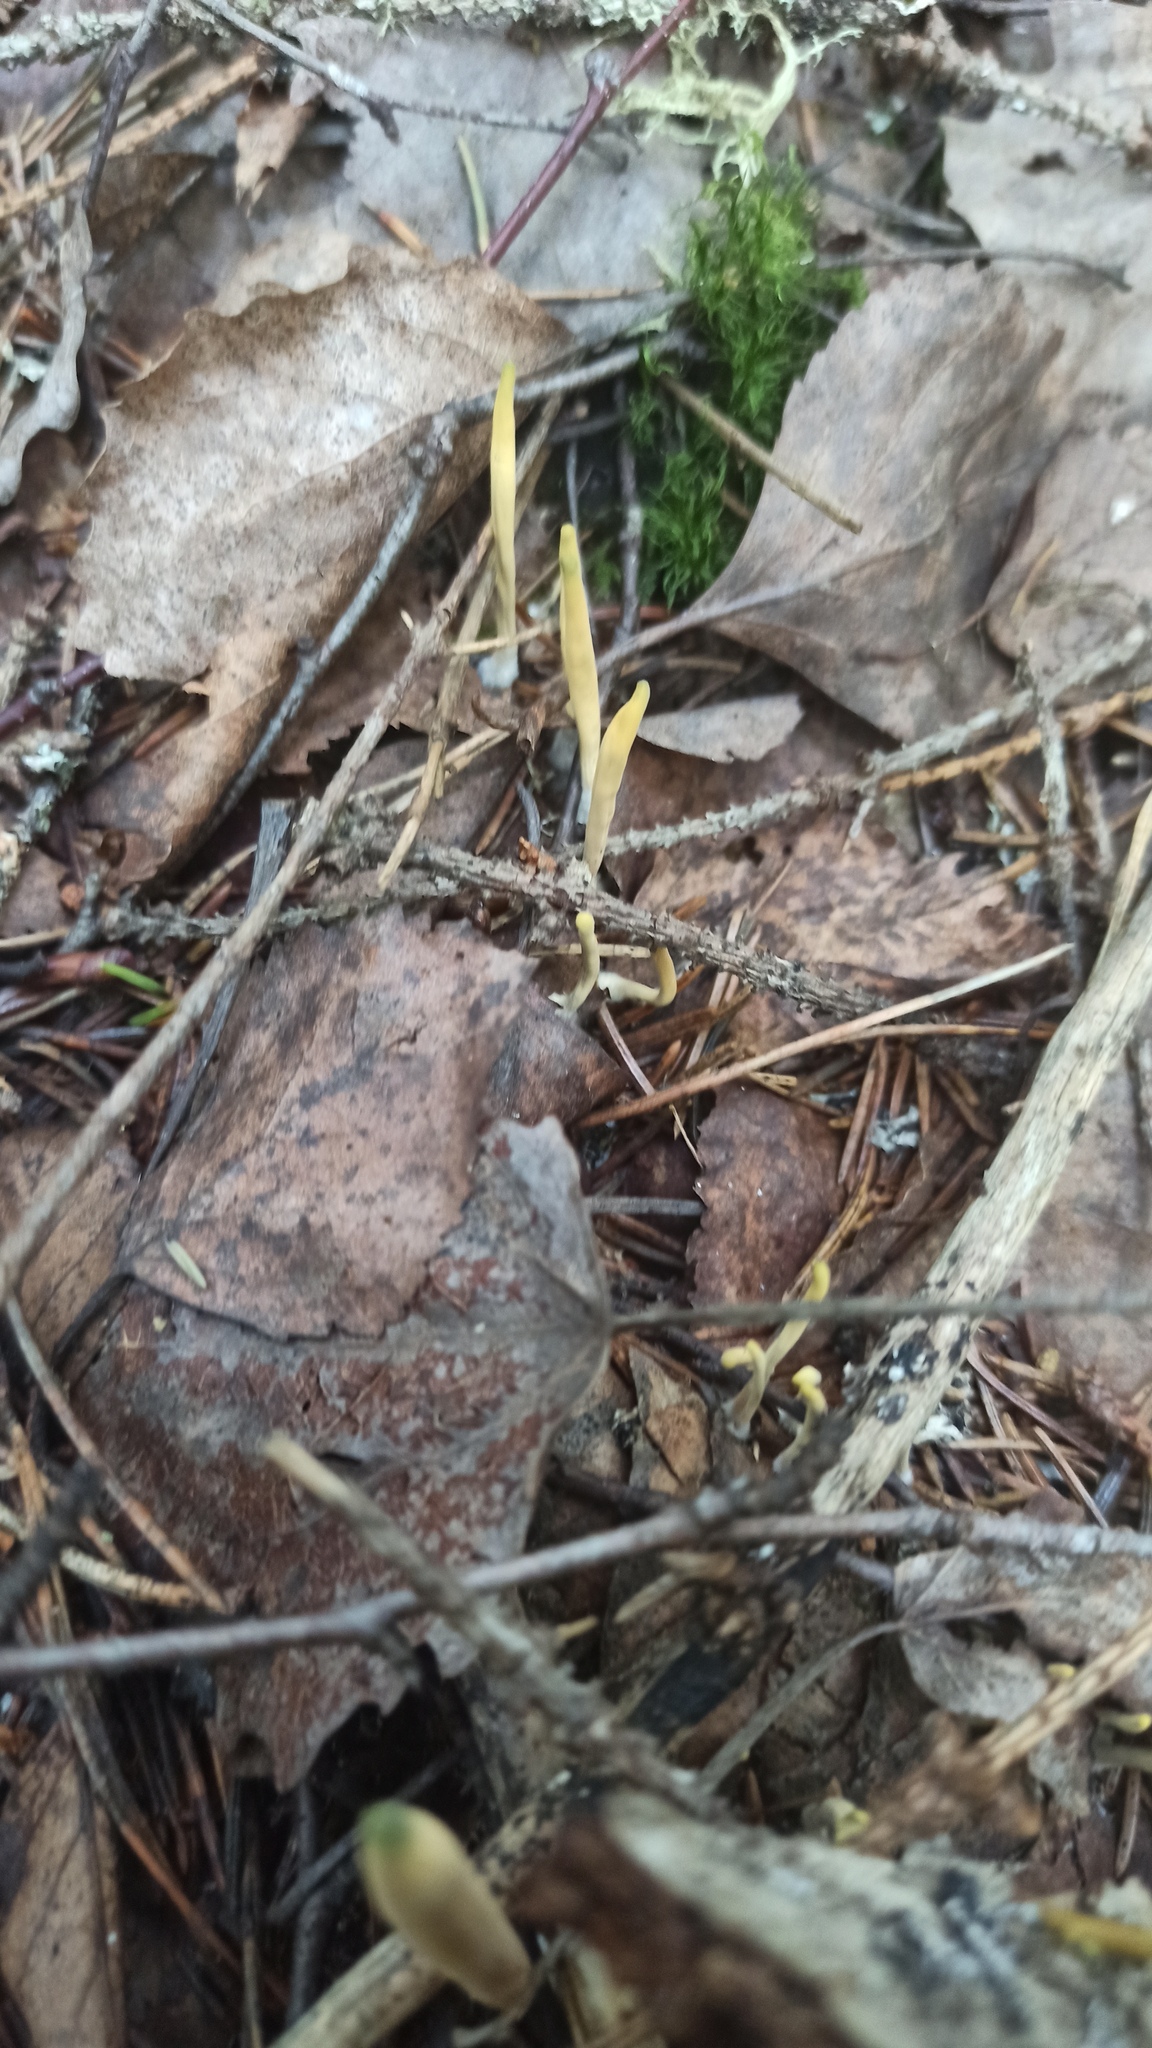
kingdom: Fungi
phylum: Basidiomycota
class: Agaricomycetes
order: Gomphales
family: Clavariadelphaceae
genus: Clavariadelphus
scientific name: Clavariadelphus ligula
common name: Ochre club
